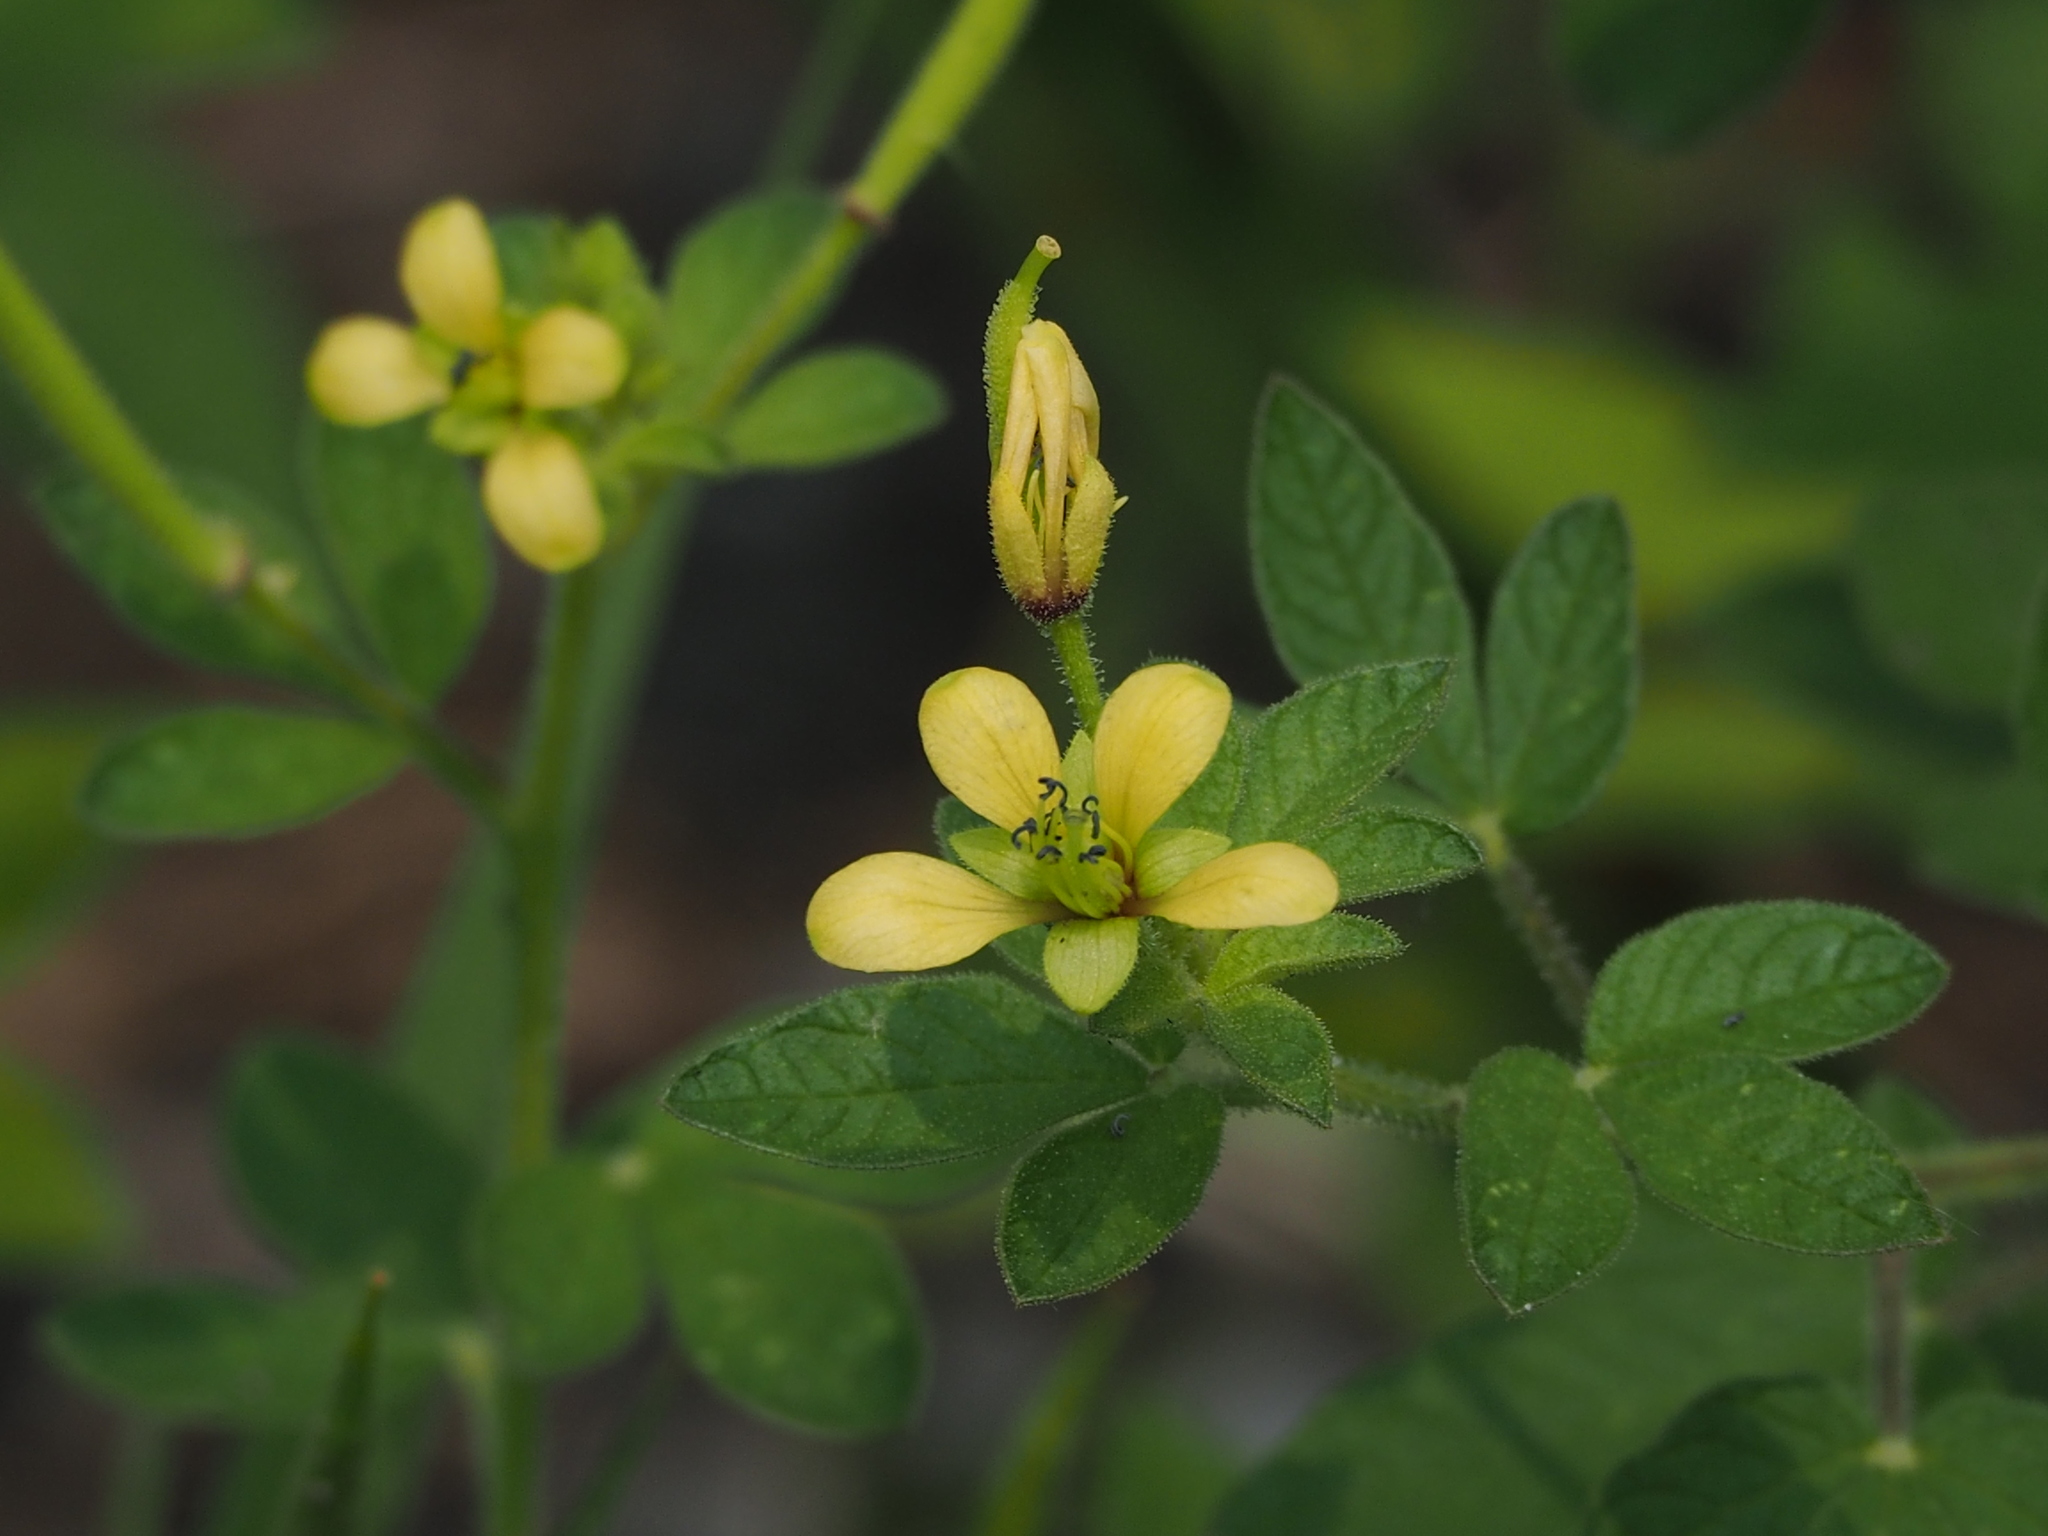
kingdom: Plantae
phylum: Tracheophyta
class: Magnoliopsida
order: Brassicales
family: Cleomaceae
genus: Arivela
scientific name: Arivela viscosa
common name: Asian spiderflower
